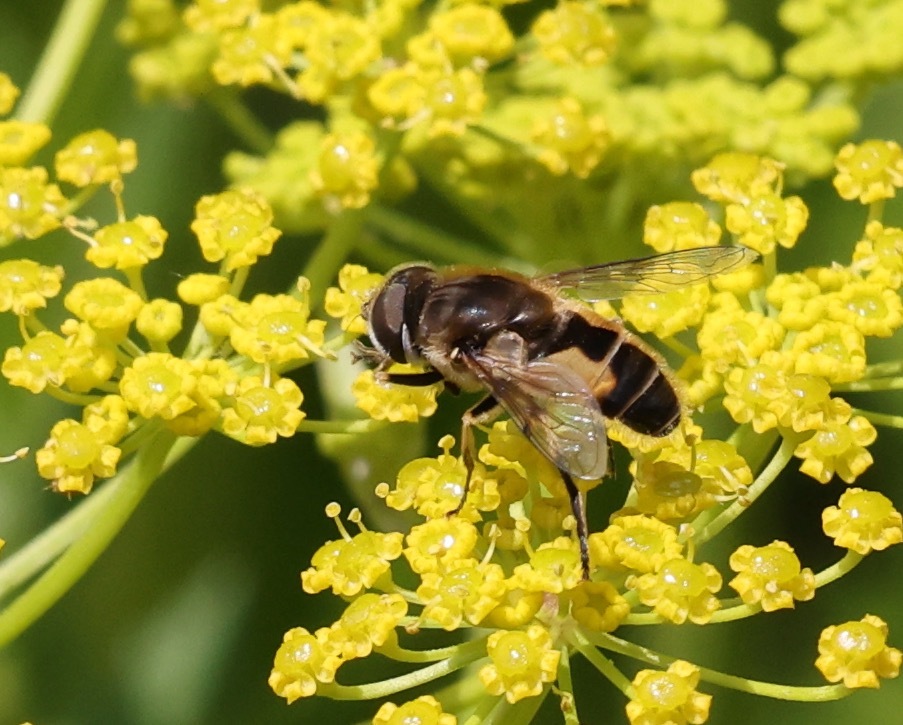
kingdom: Animalia
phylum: Arthropoda
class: Insecta
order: Diptera
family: Syrphidae
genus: Eristalis
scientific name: Eristalis arbustorum
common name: Hover fly
